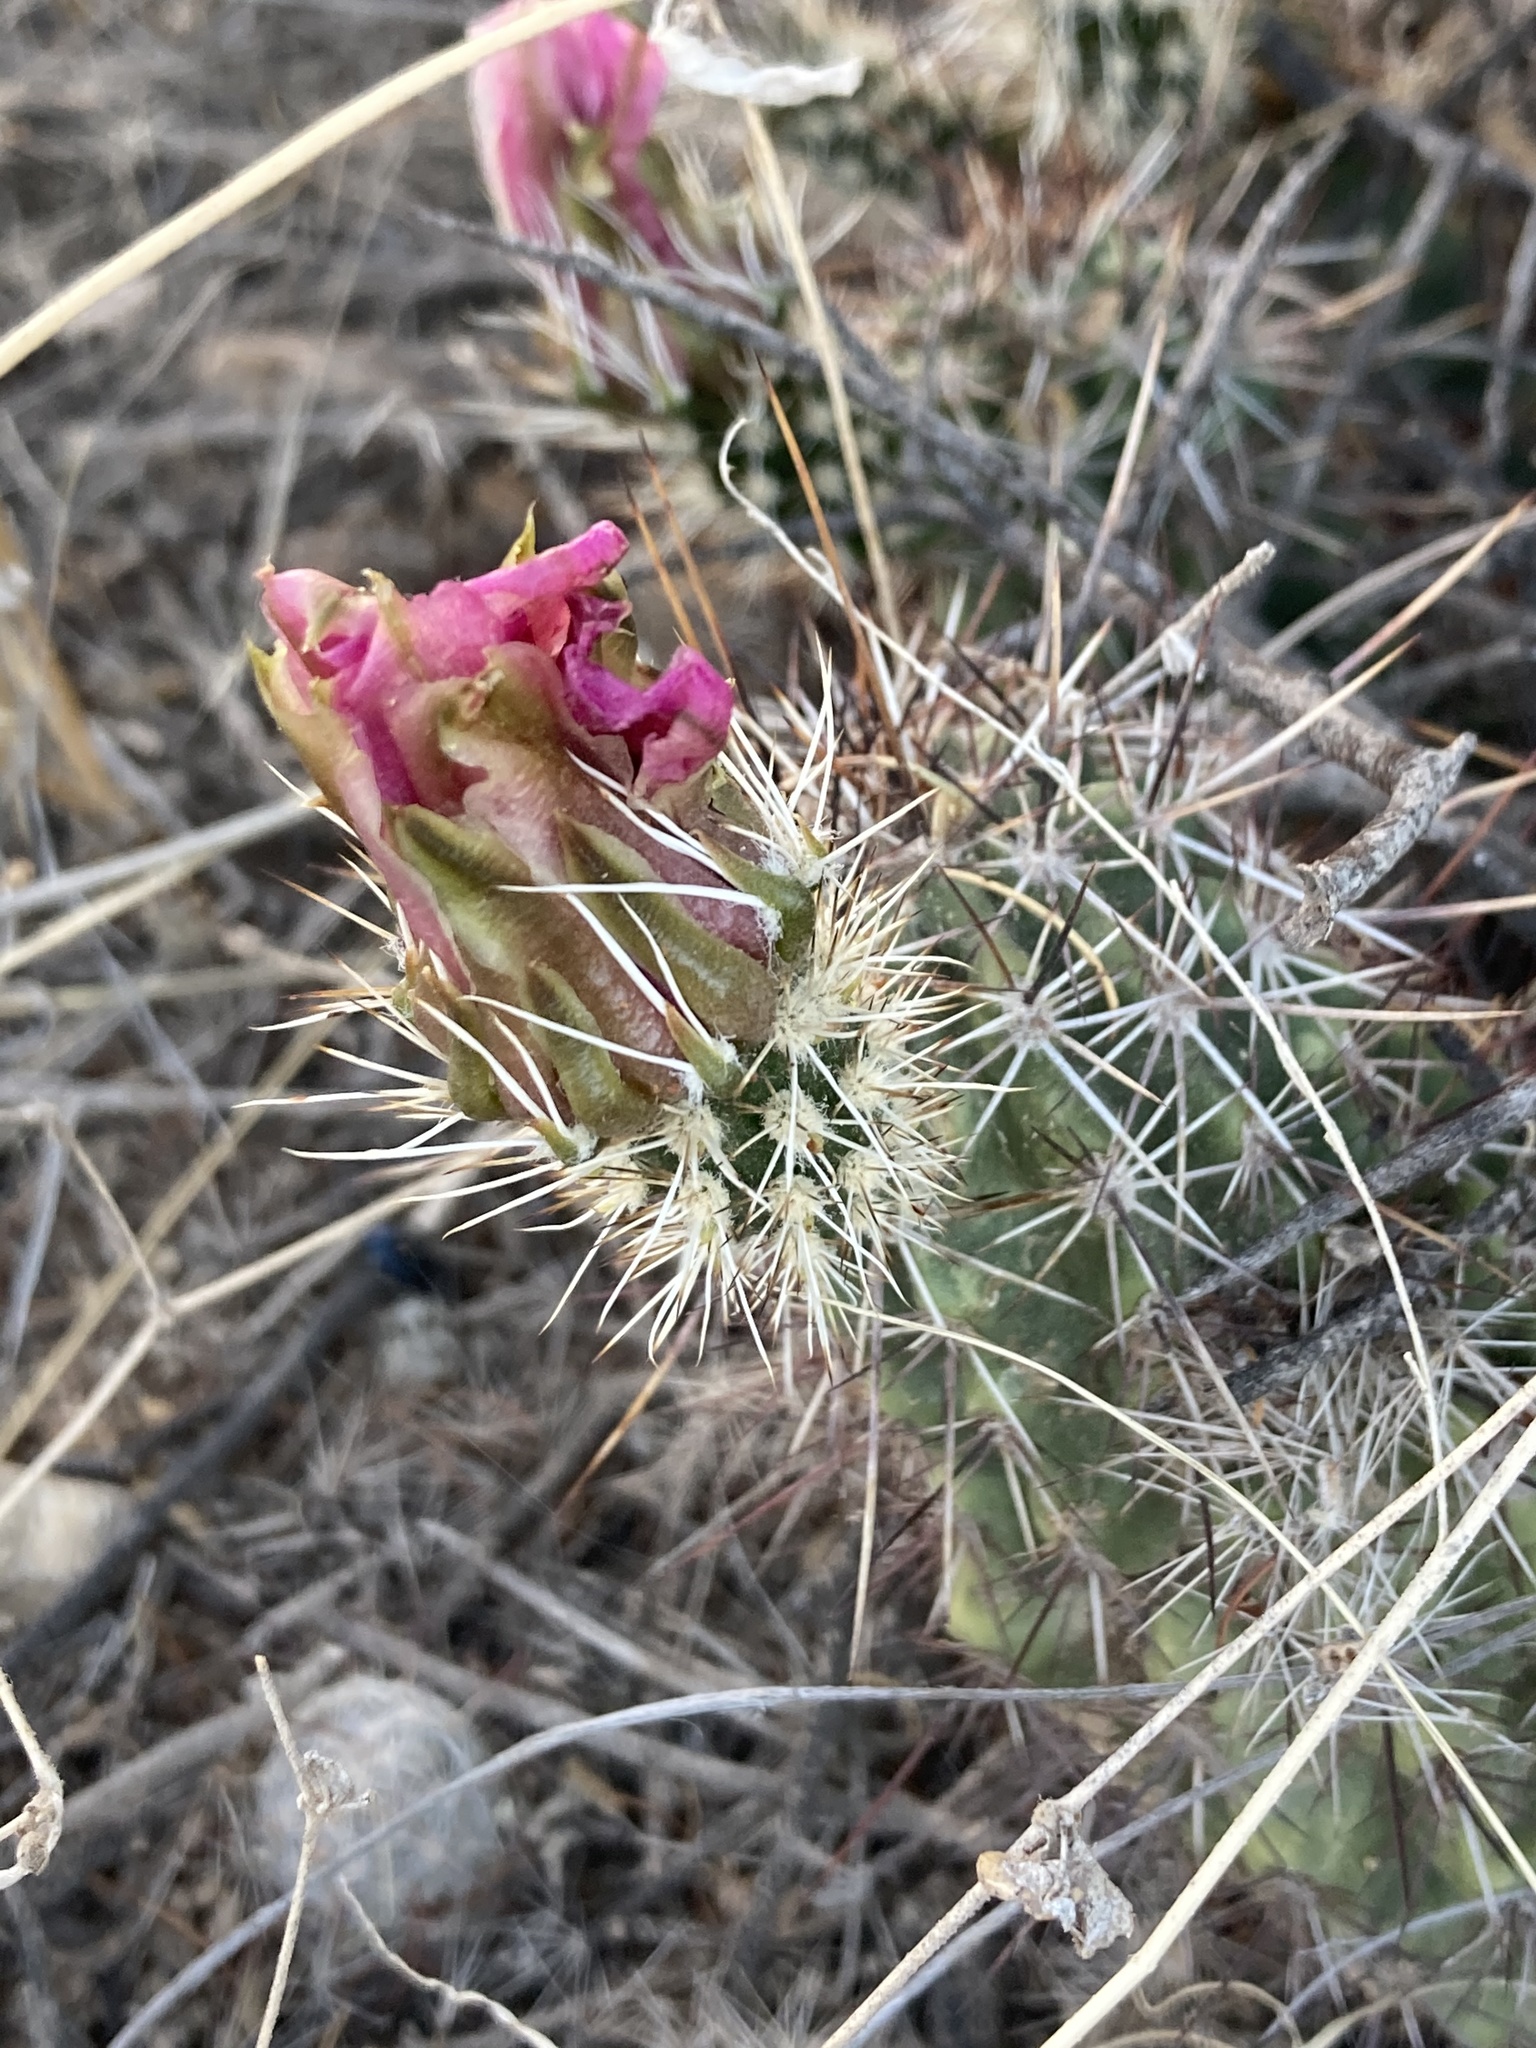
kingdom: Plantae
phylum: Tracheophyta
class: Magnoliopsida
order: Caryophyllales
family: Cactaceae
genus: Echinocereus
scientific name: Echinocereus fasciculatus
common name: Bundle hedgehog
